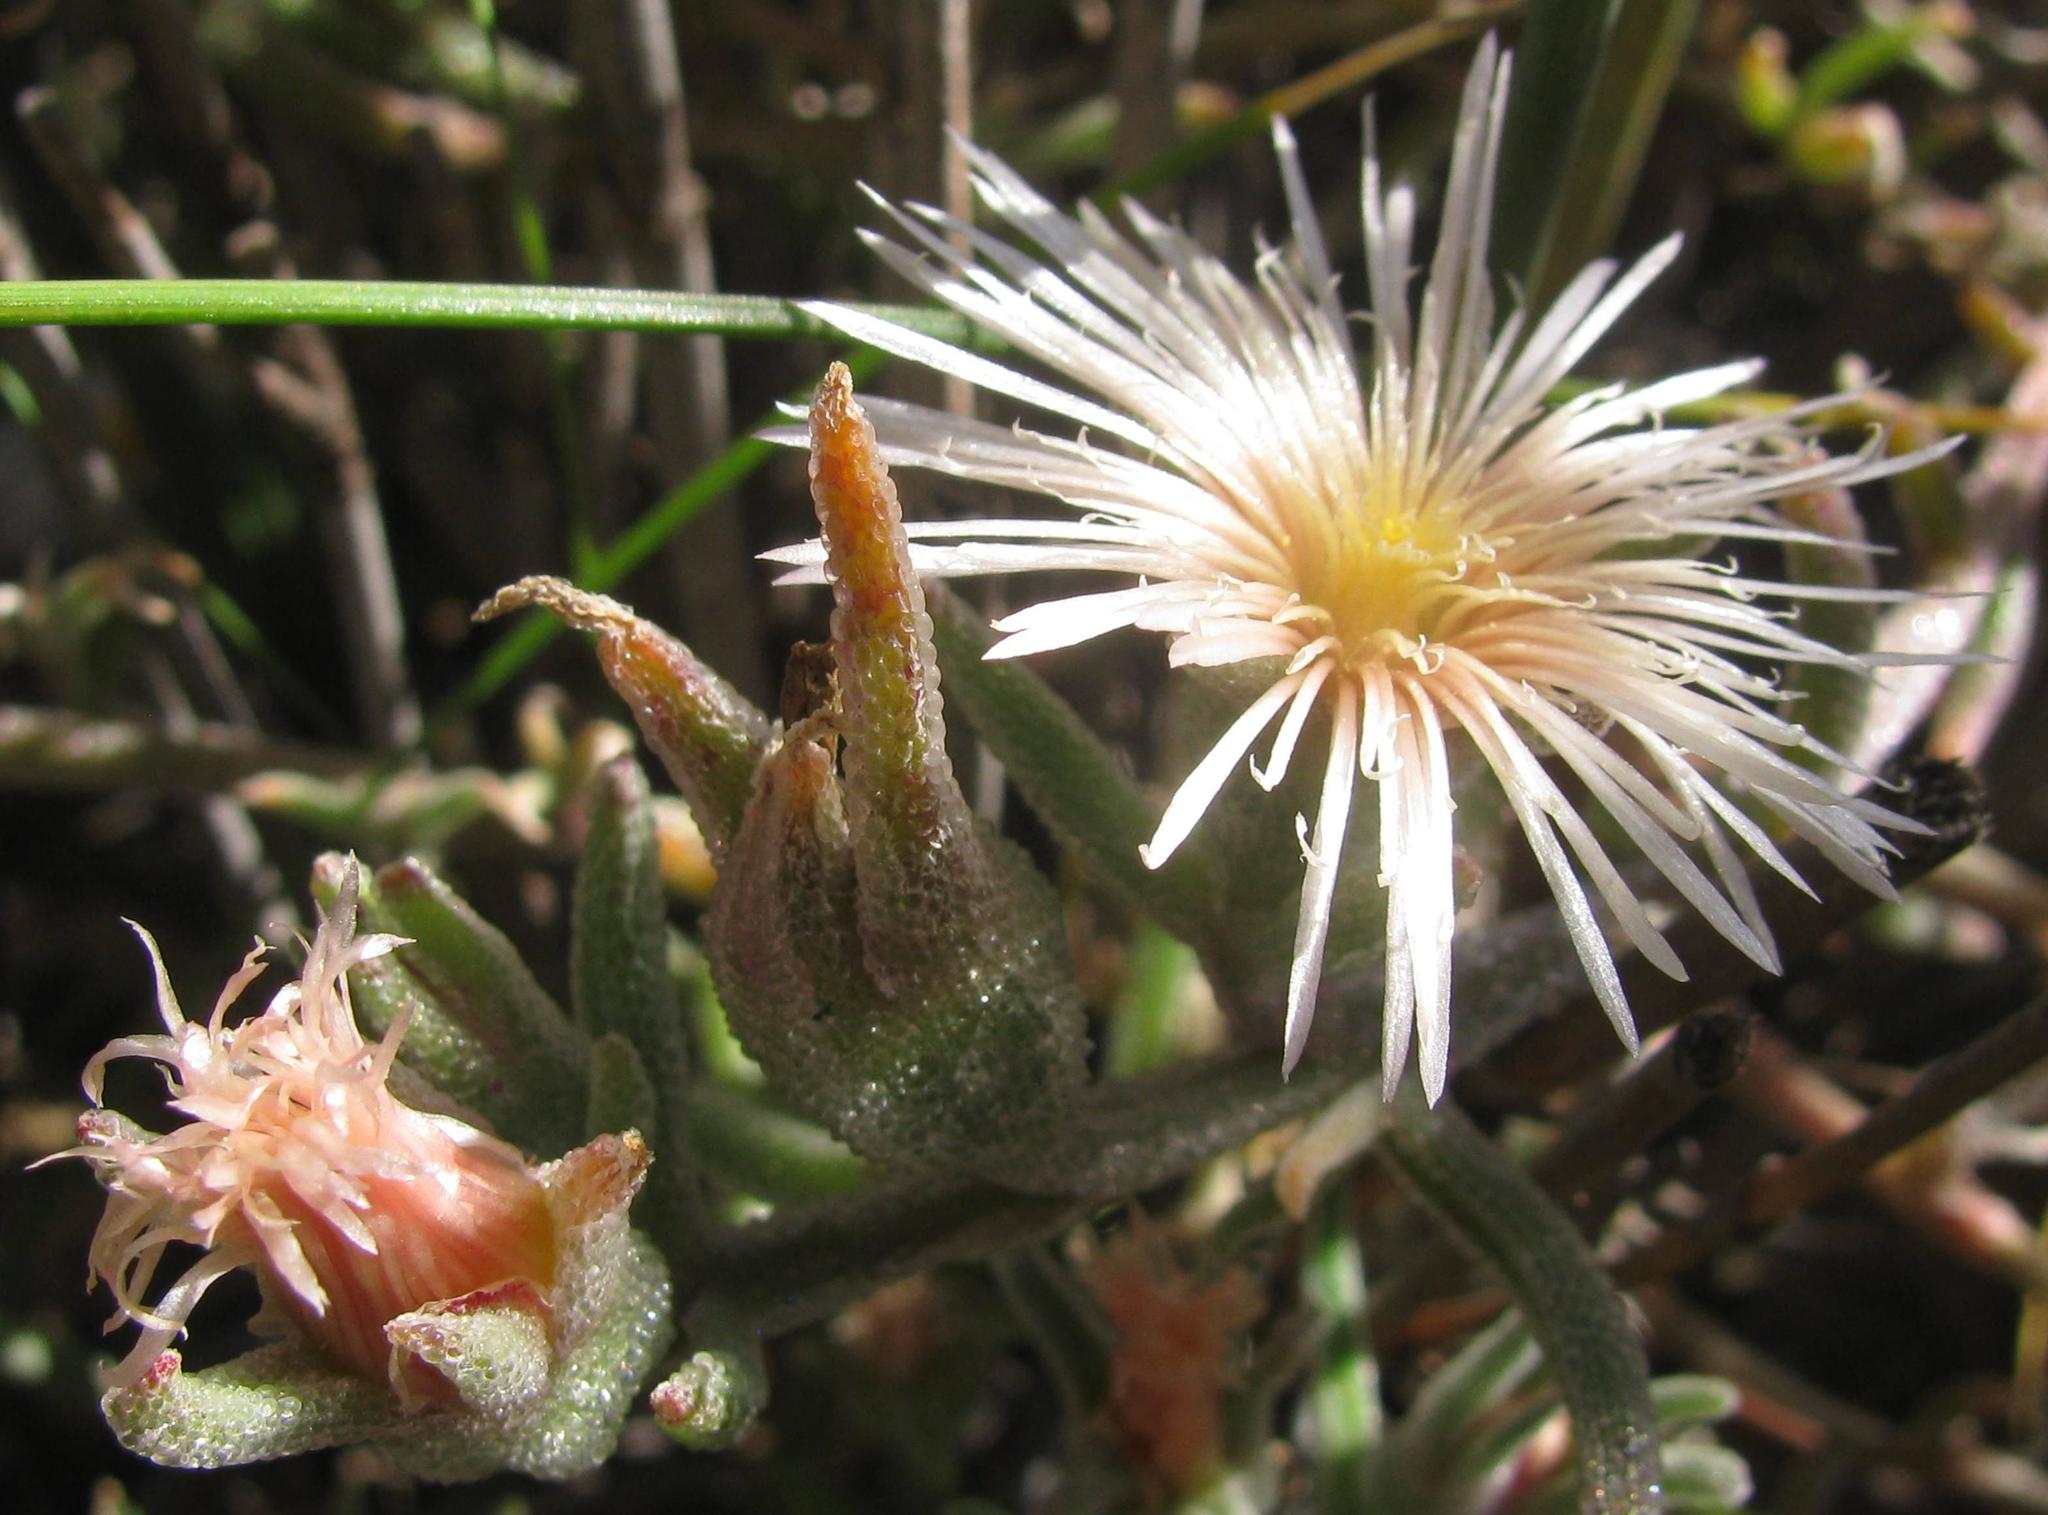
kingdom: Plantae
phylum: Tracheophyta
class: Magnoliopsida
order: Caryophyllales
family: Aizoaceae
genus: Mesembryanthemum
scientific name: Mesembryanthemum grossum
